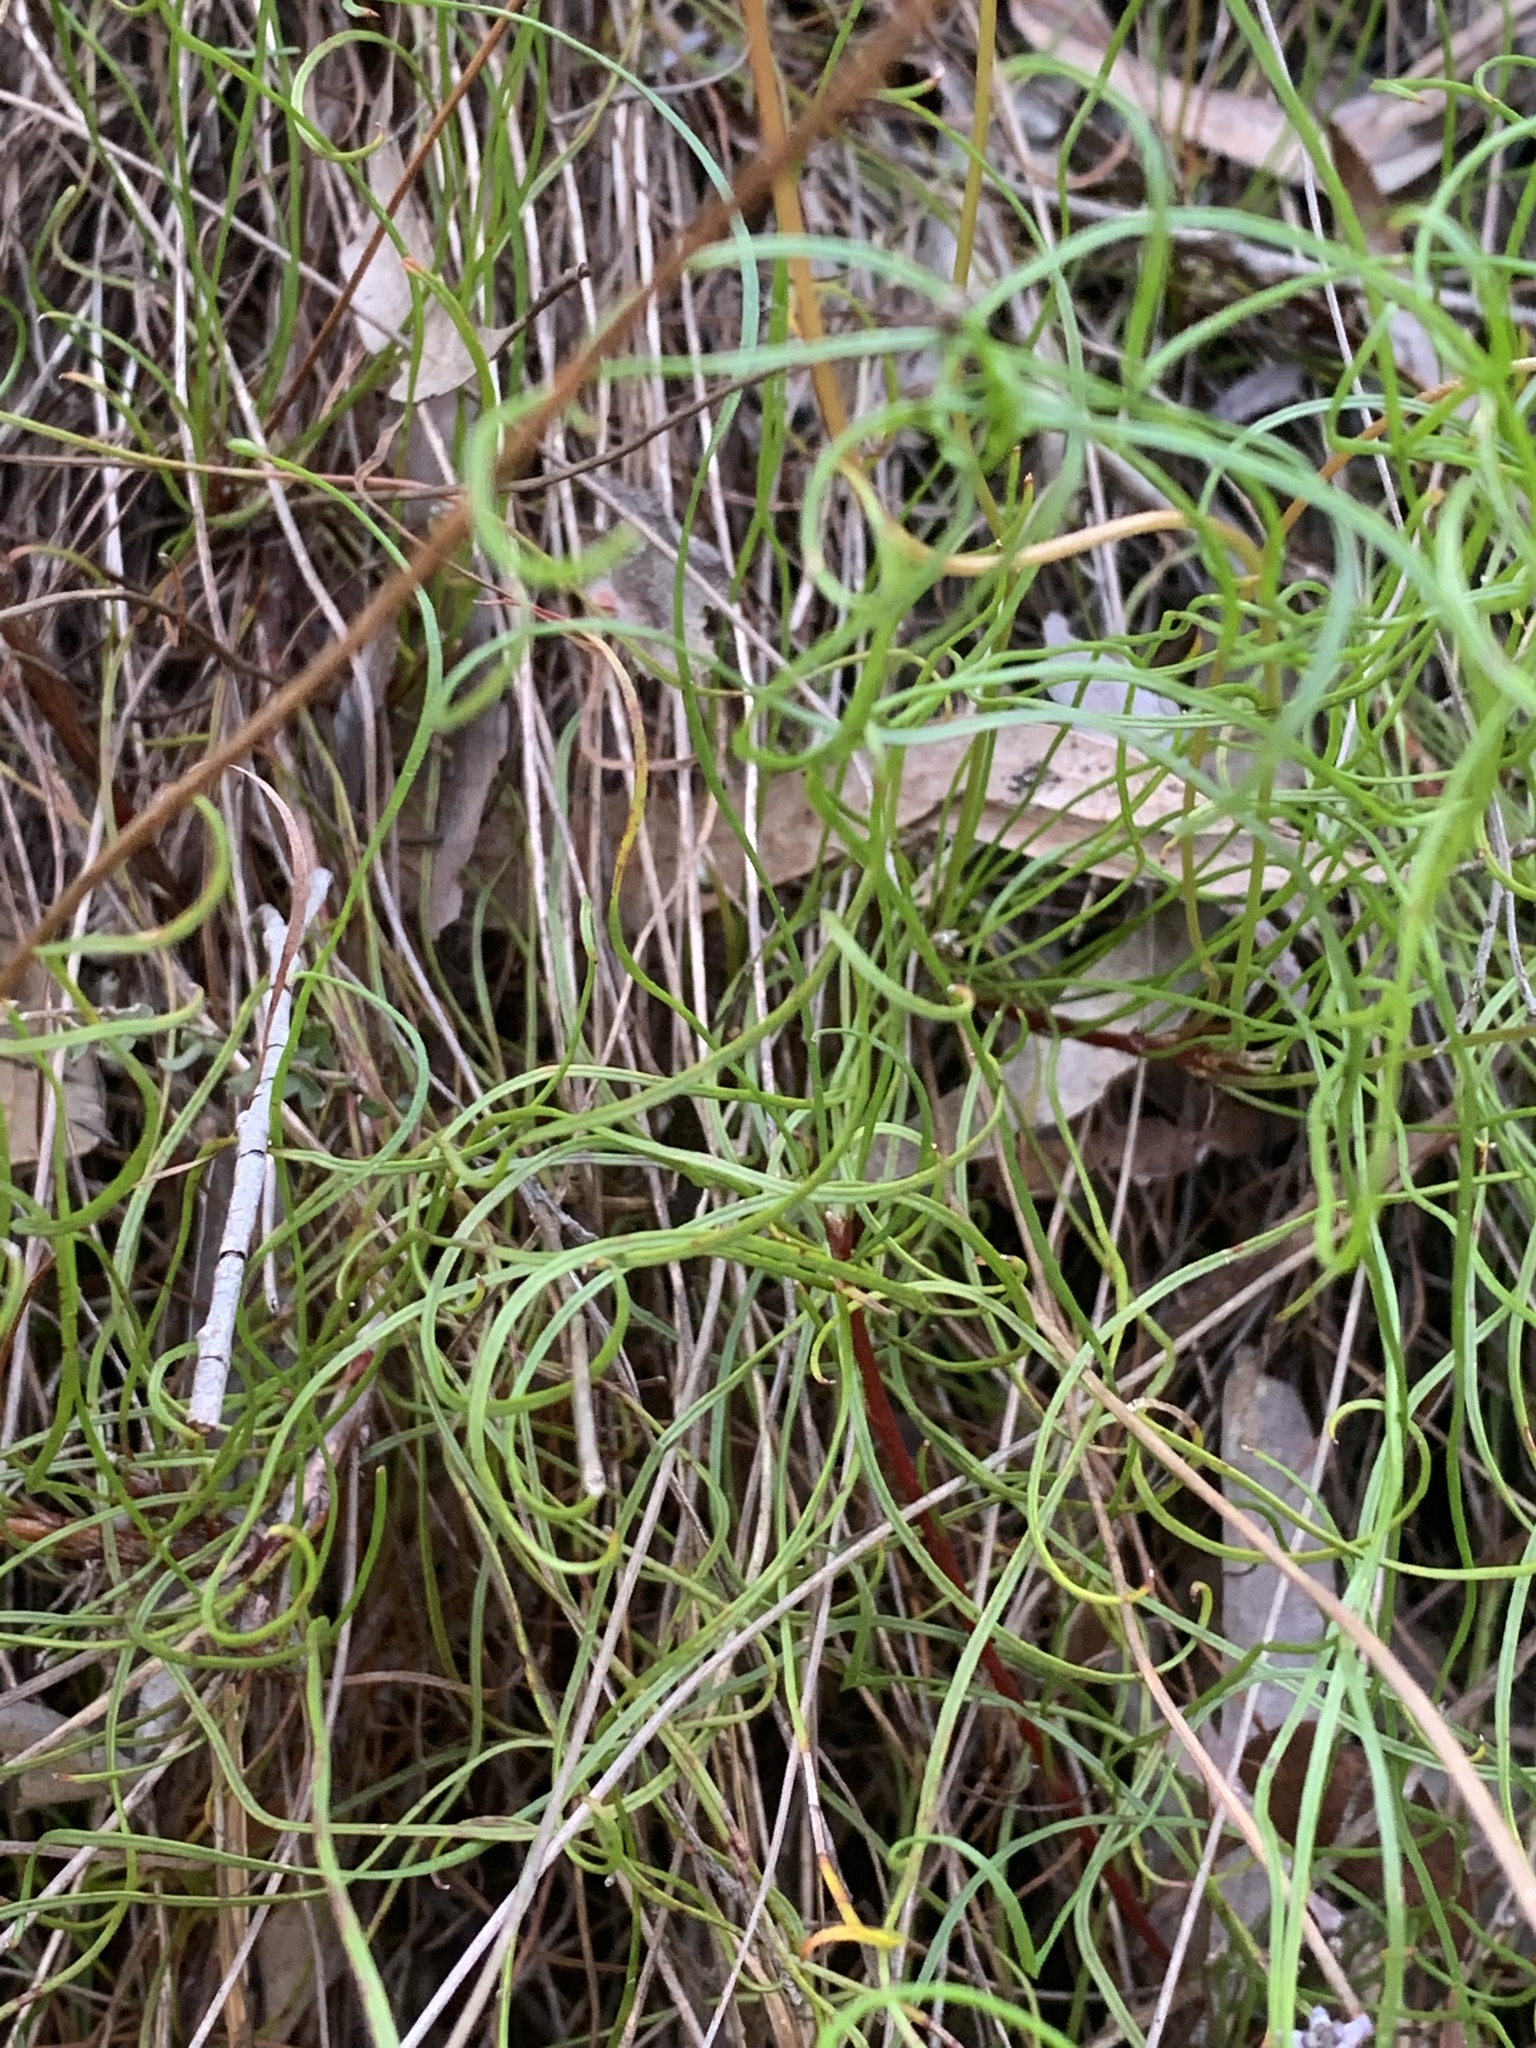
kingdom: Plantae
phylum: Tracheophyta
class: Magnoliopsida
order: Proteales
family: Proteaceae
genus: Conospermum
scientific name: Conospermum tenuifolium
